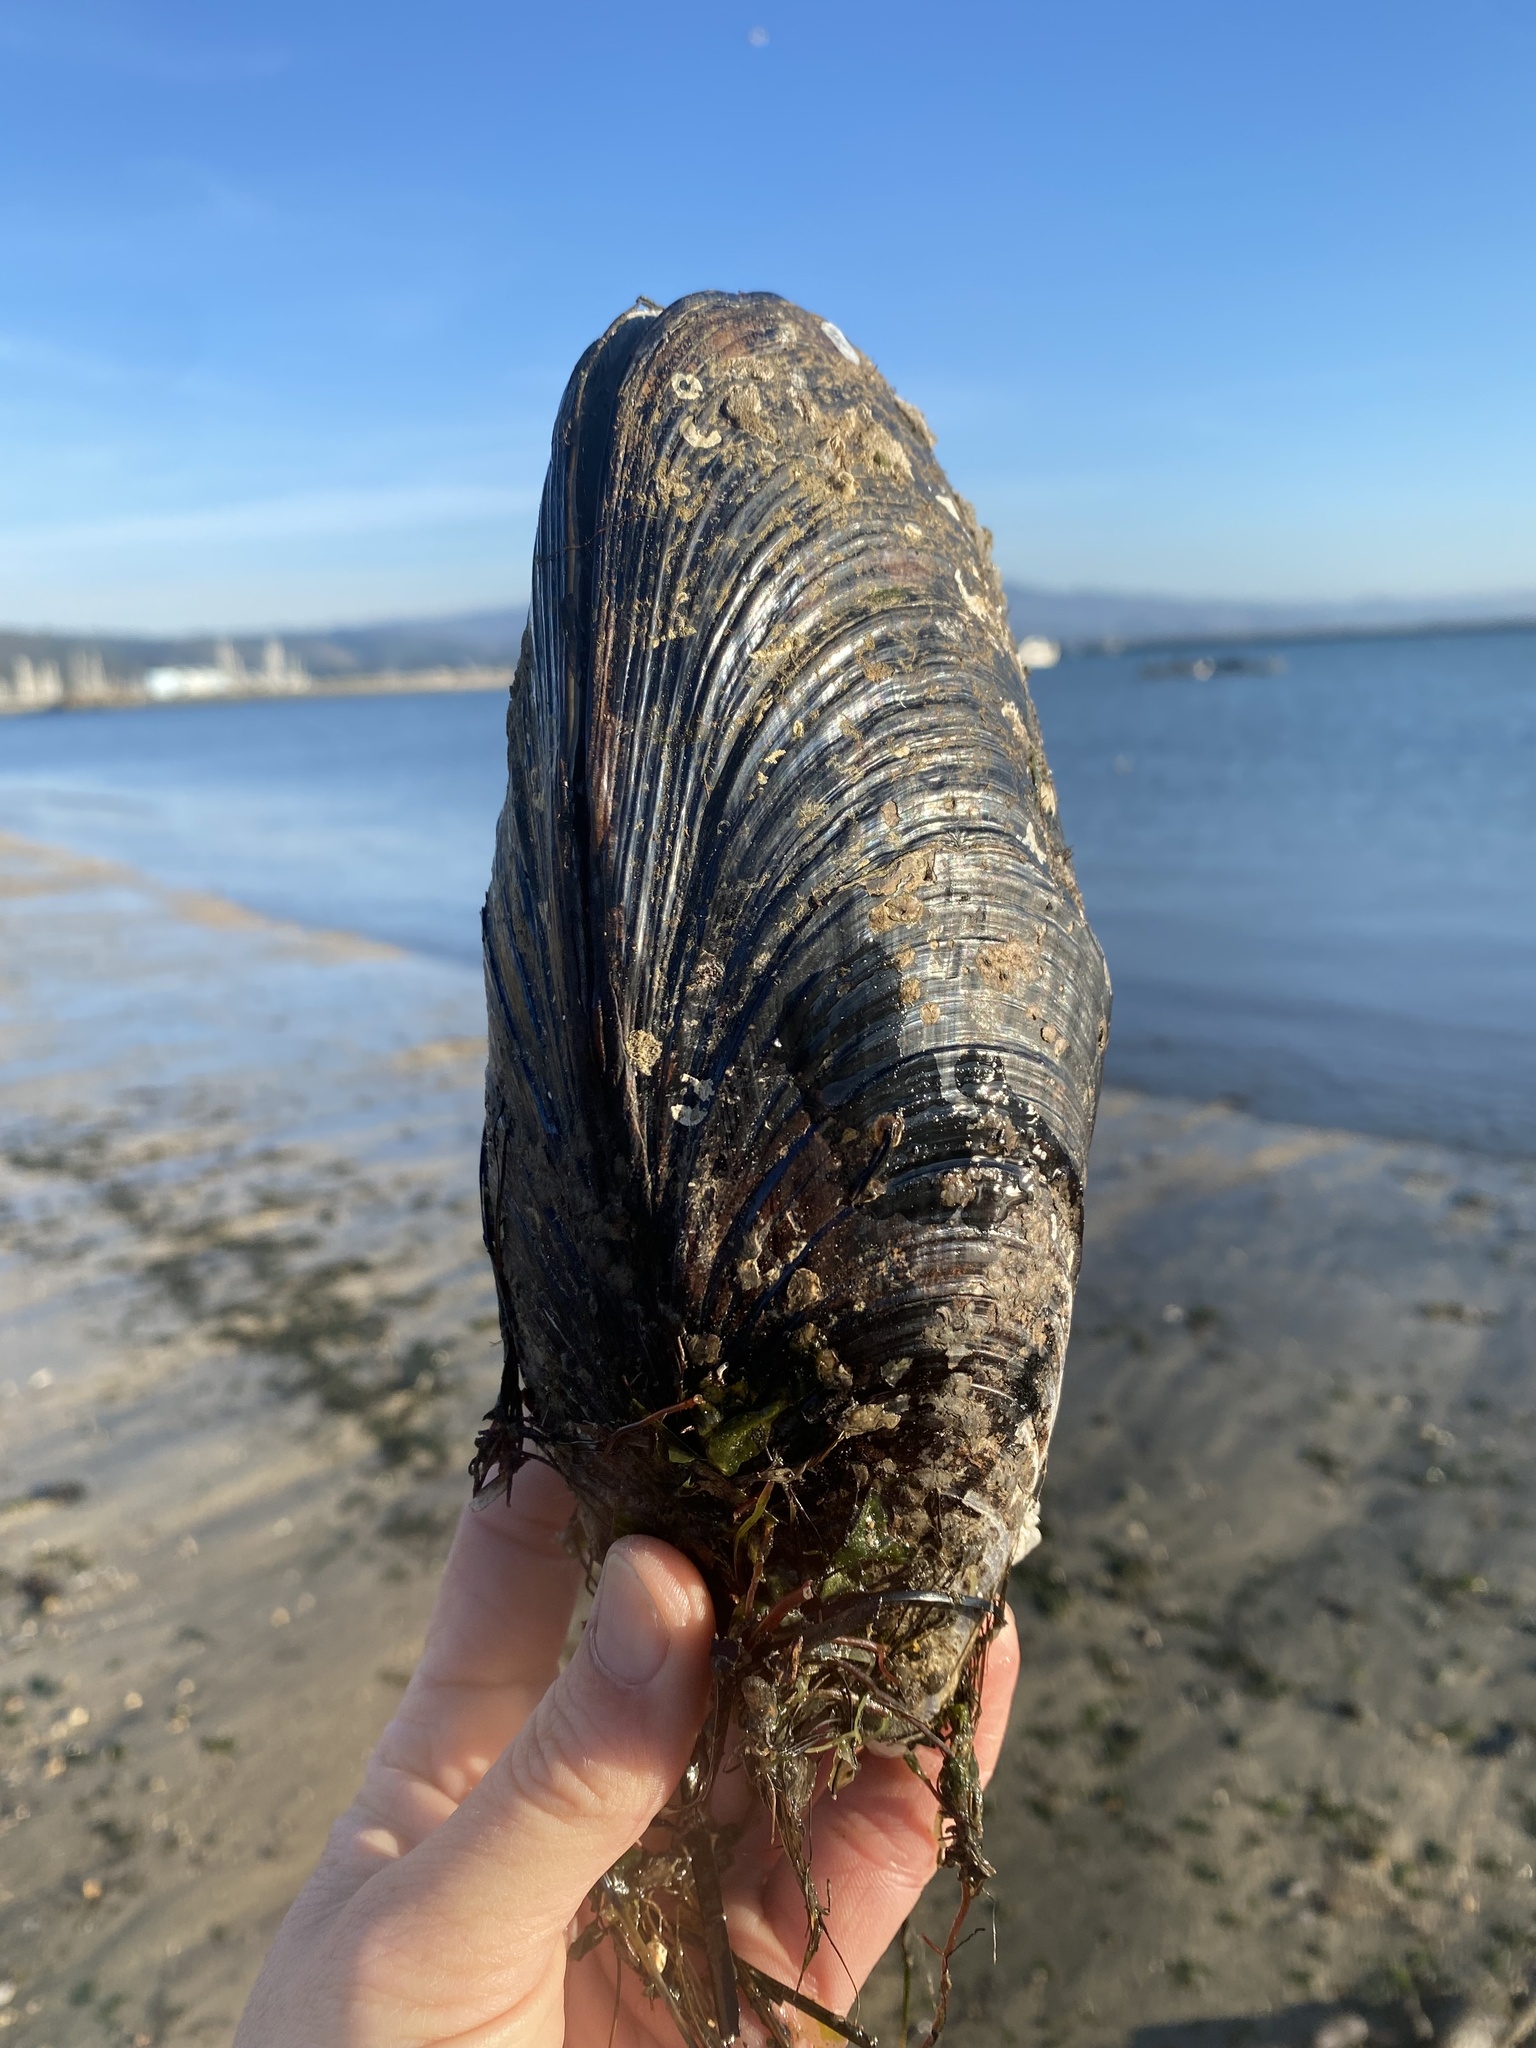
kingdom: Animalia
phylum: Mollusca
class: Bivalvia
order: Mytilida
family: Mytilidae
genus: Mytilus
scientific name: Mytilus californianus
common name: California mussel
